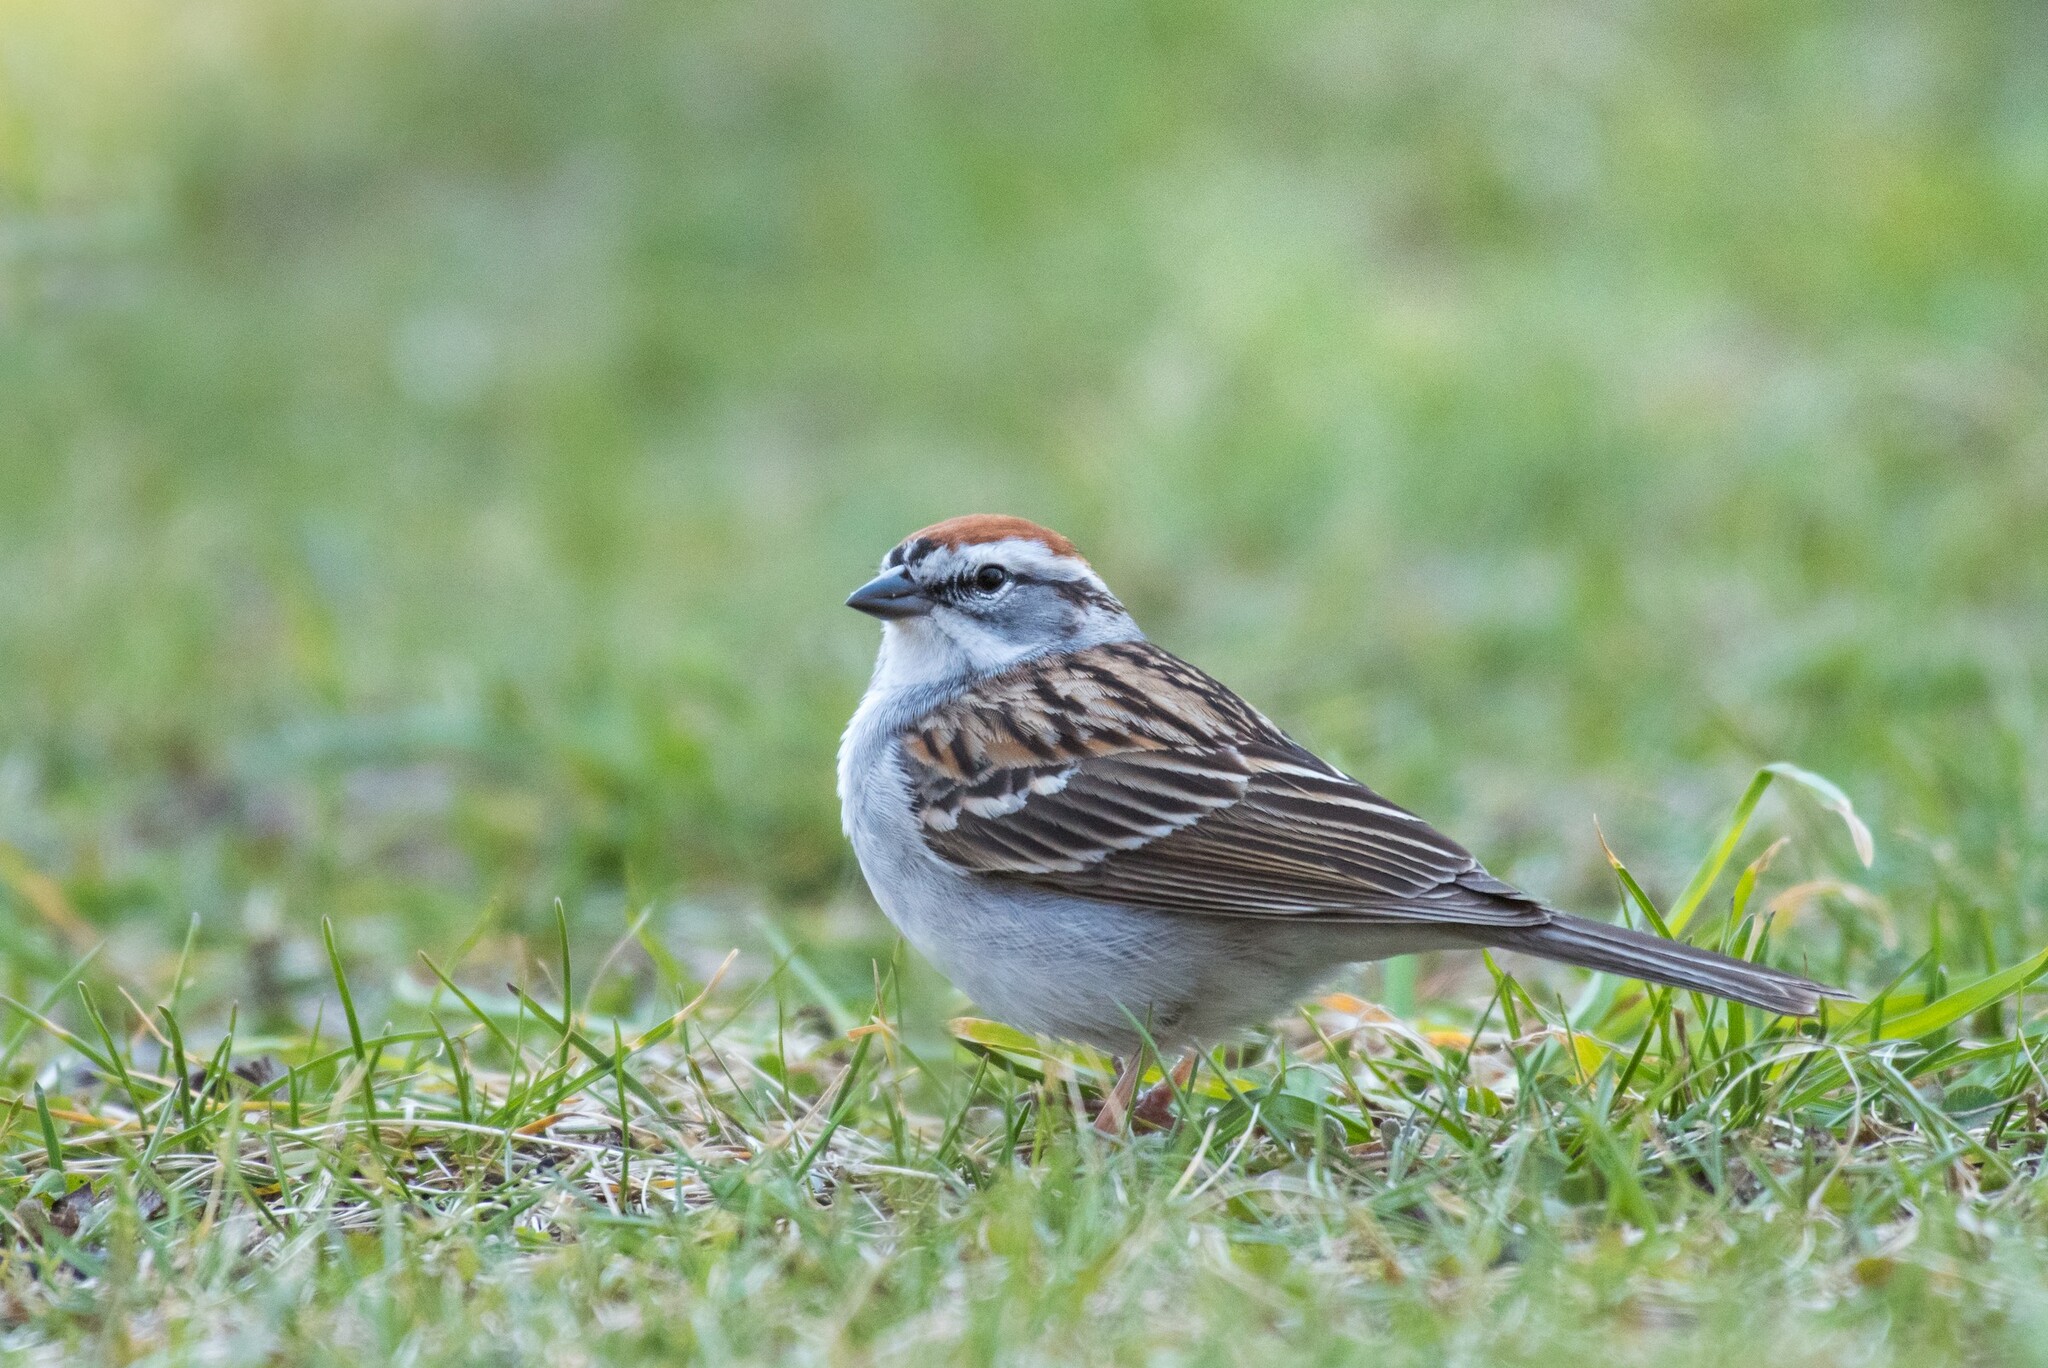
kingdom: Animalia
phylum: Chordata
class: Aves
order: Passeriformes
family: Passerellidae
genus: Spizella
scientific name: Spizella passerina
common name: Chipping sparrow
